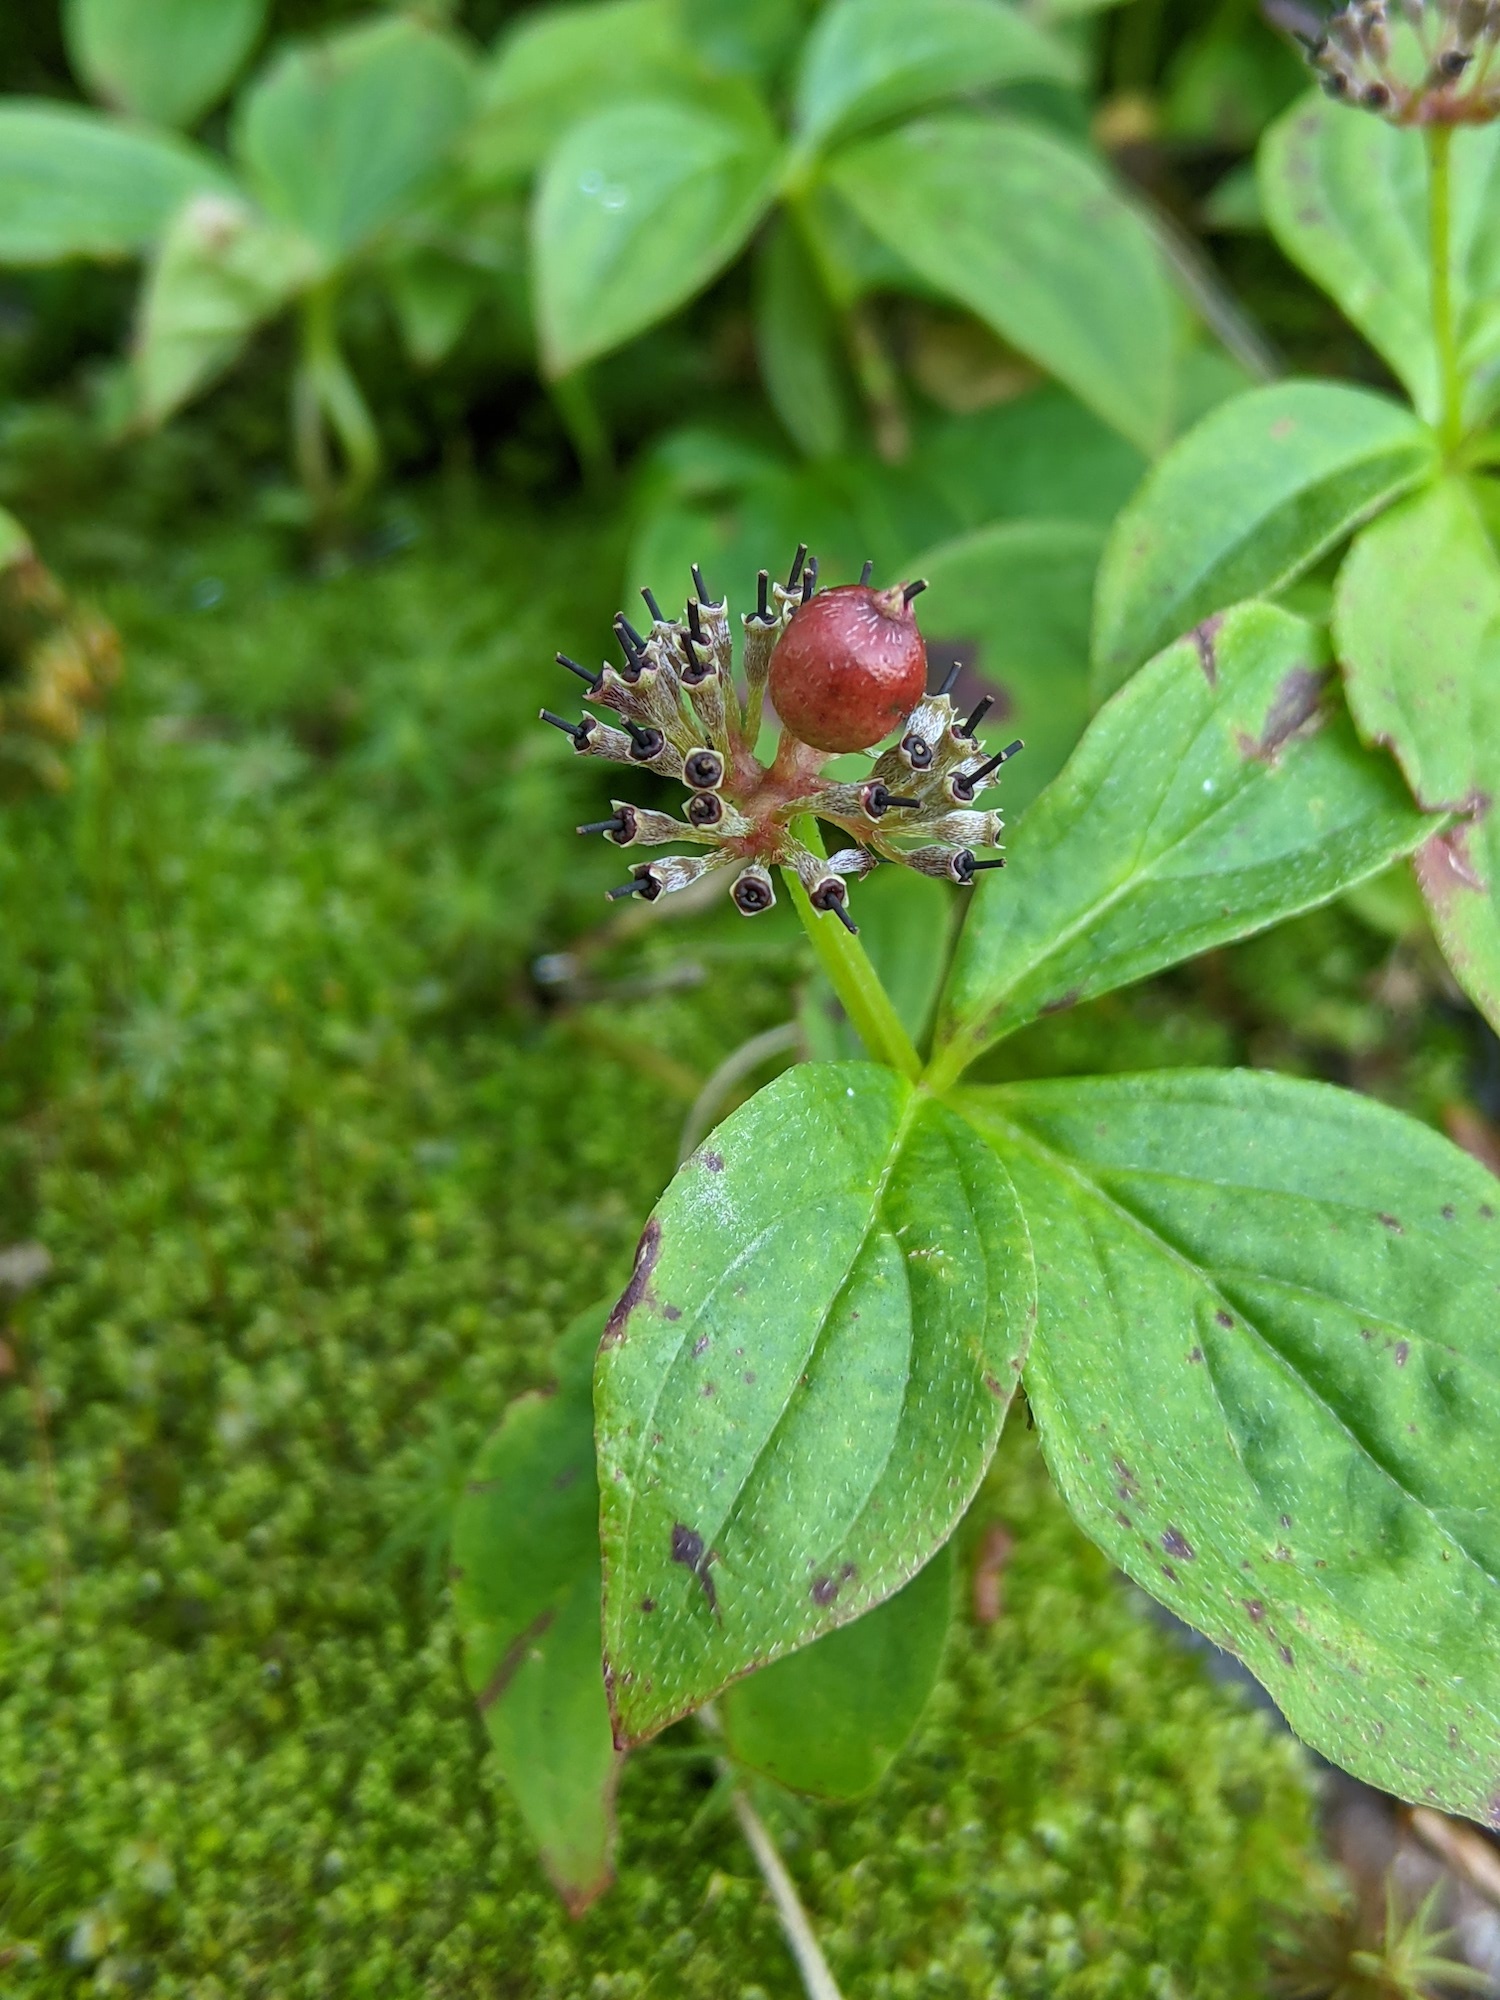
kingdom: Plantae
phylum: Tracheophyta
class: Magnoliopsida
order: Cornales
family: Cornaceae
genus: Cornus
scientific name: Cornus unalaschkensis
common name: Alaska bunchberry
